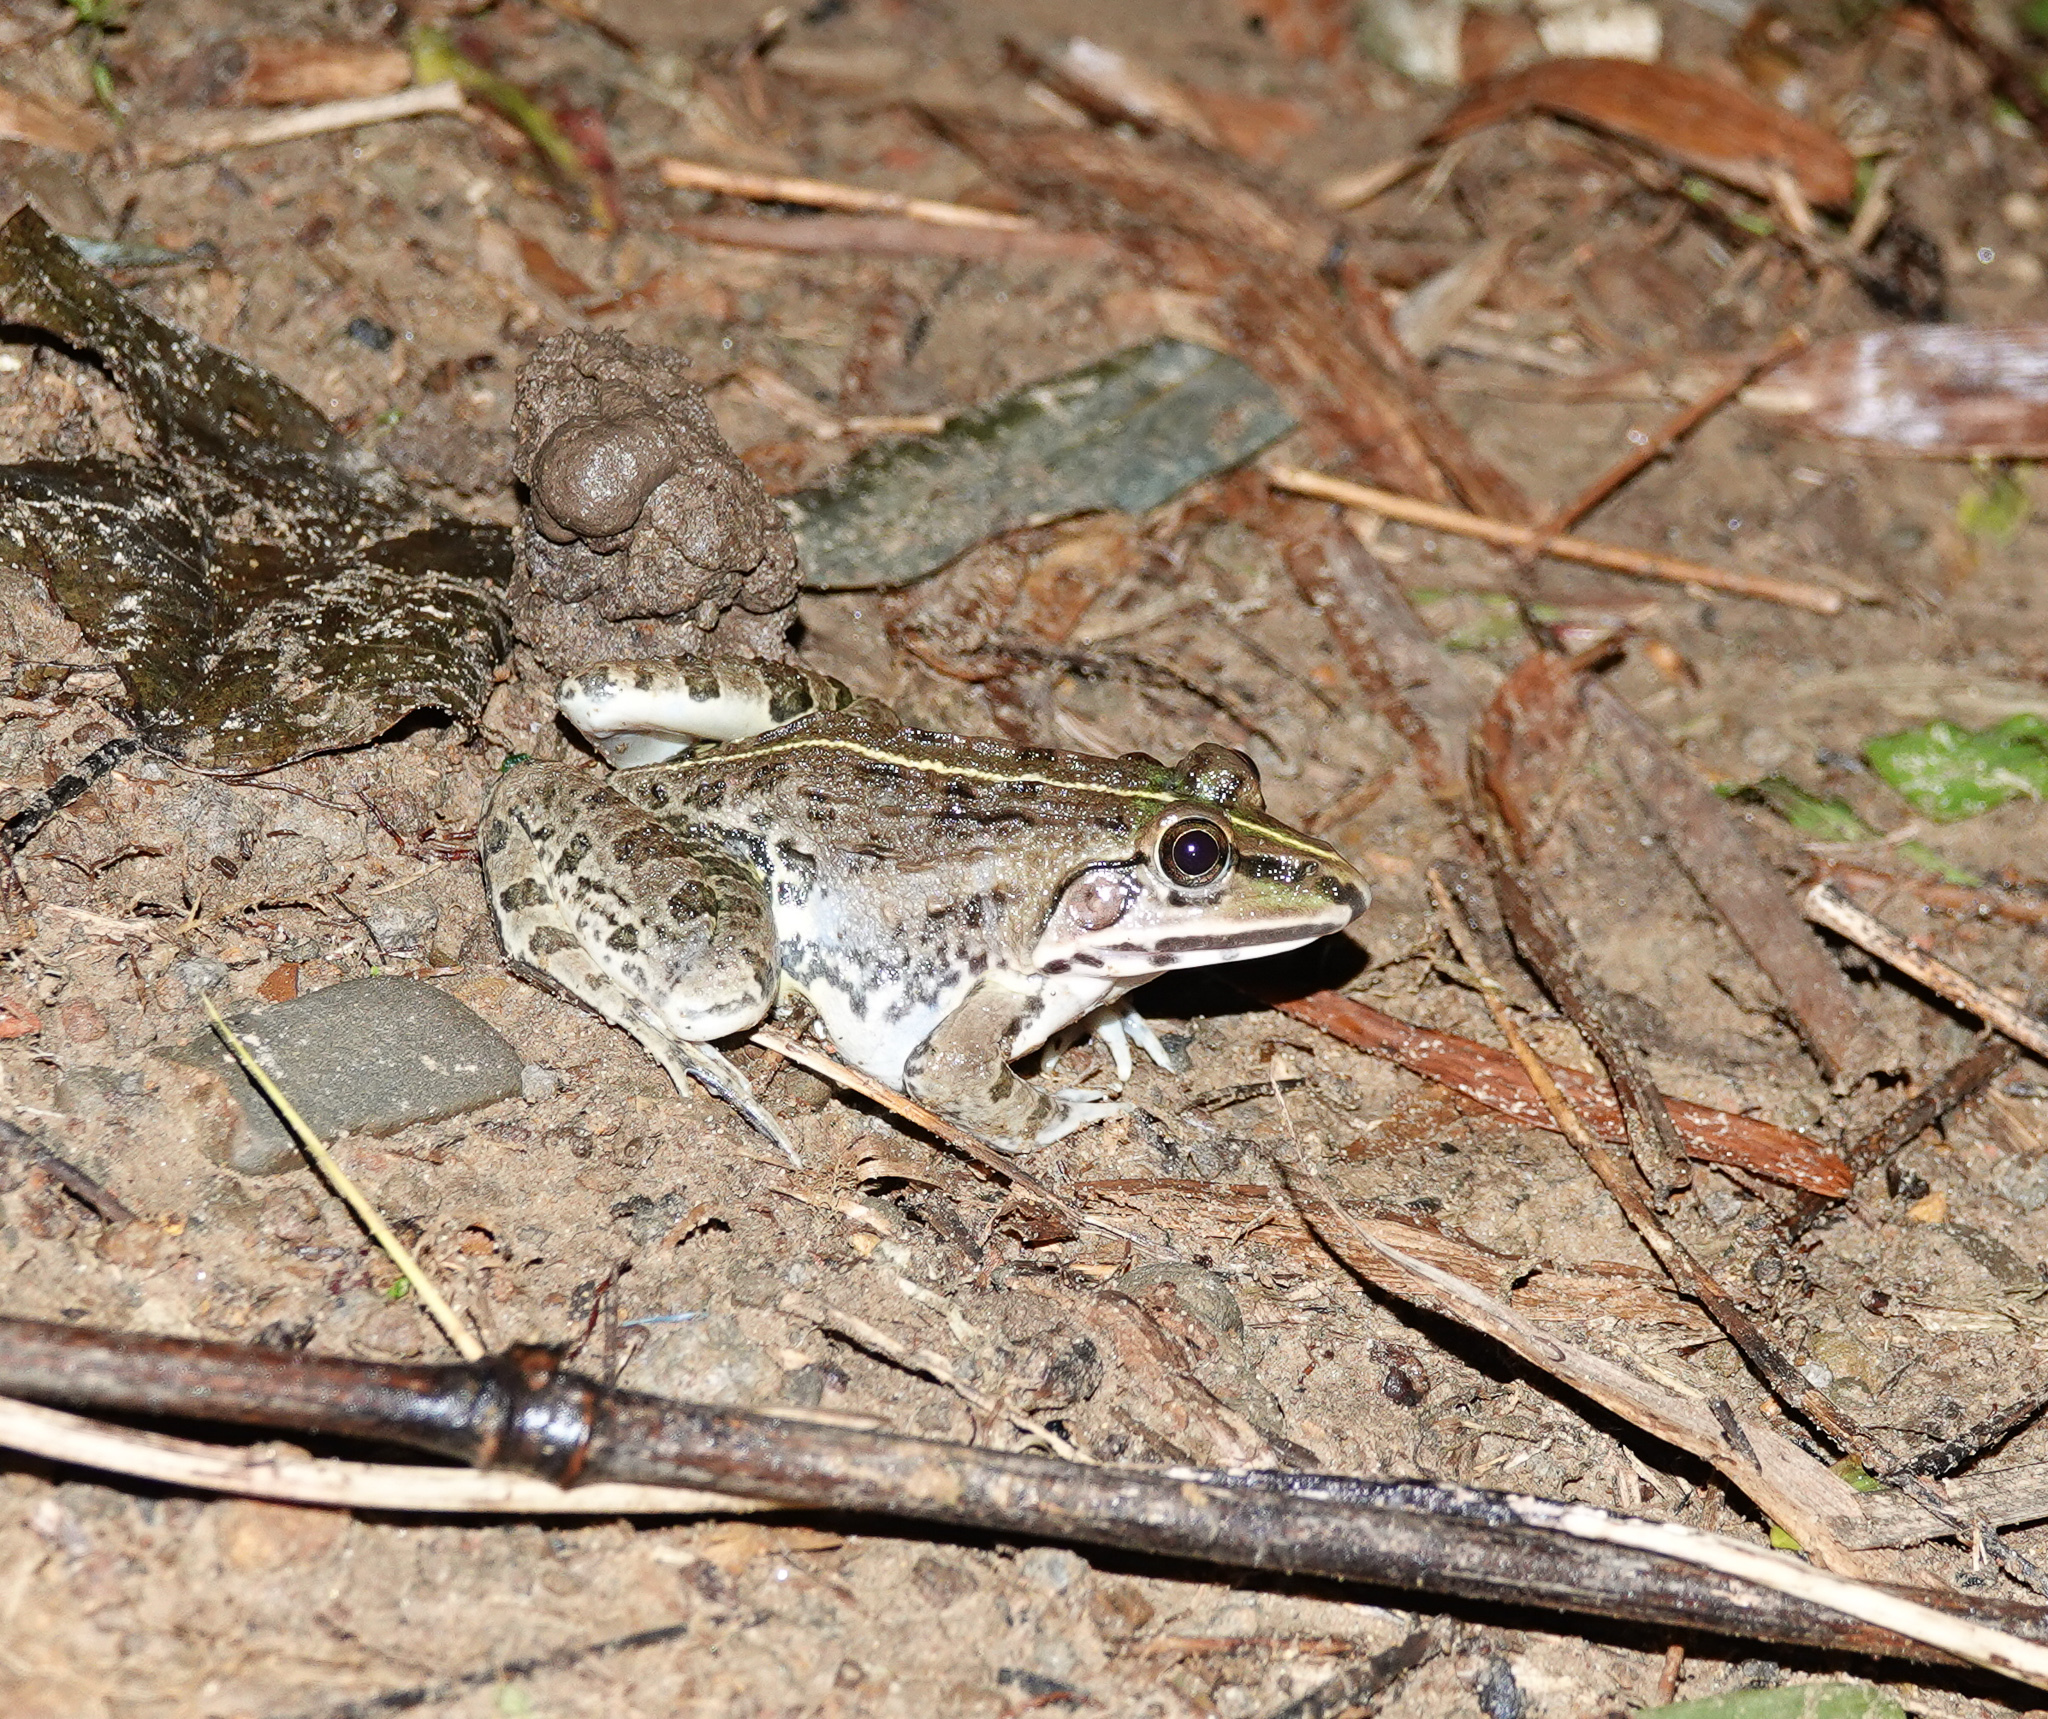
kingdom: Animalia
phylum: Chordata
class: Amphibia
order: Anura
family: Dicroglossidae
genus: Hoplobatrachus
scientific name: Hoplobatrachus tigerinus
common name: Indian bullfrog
